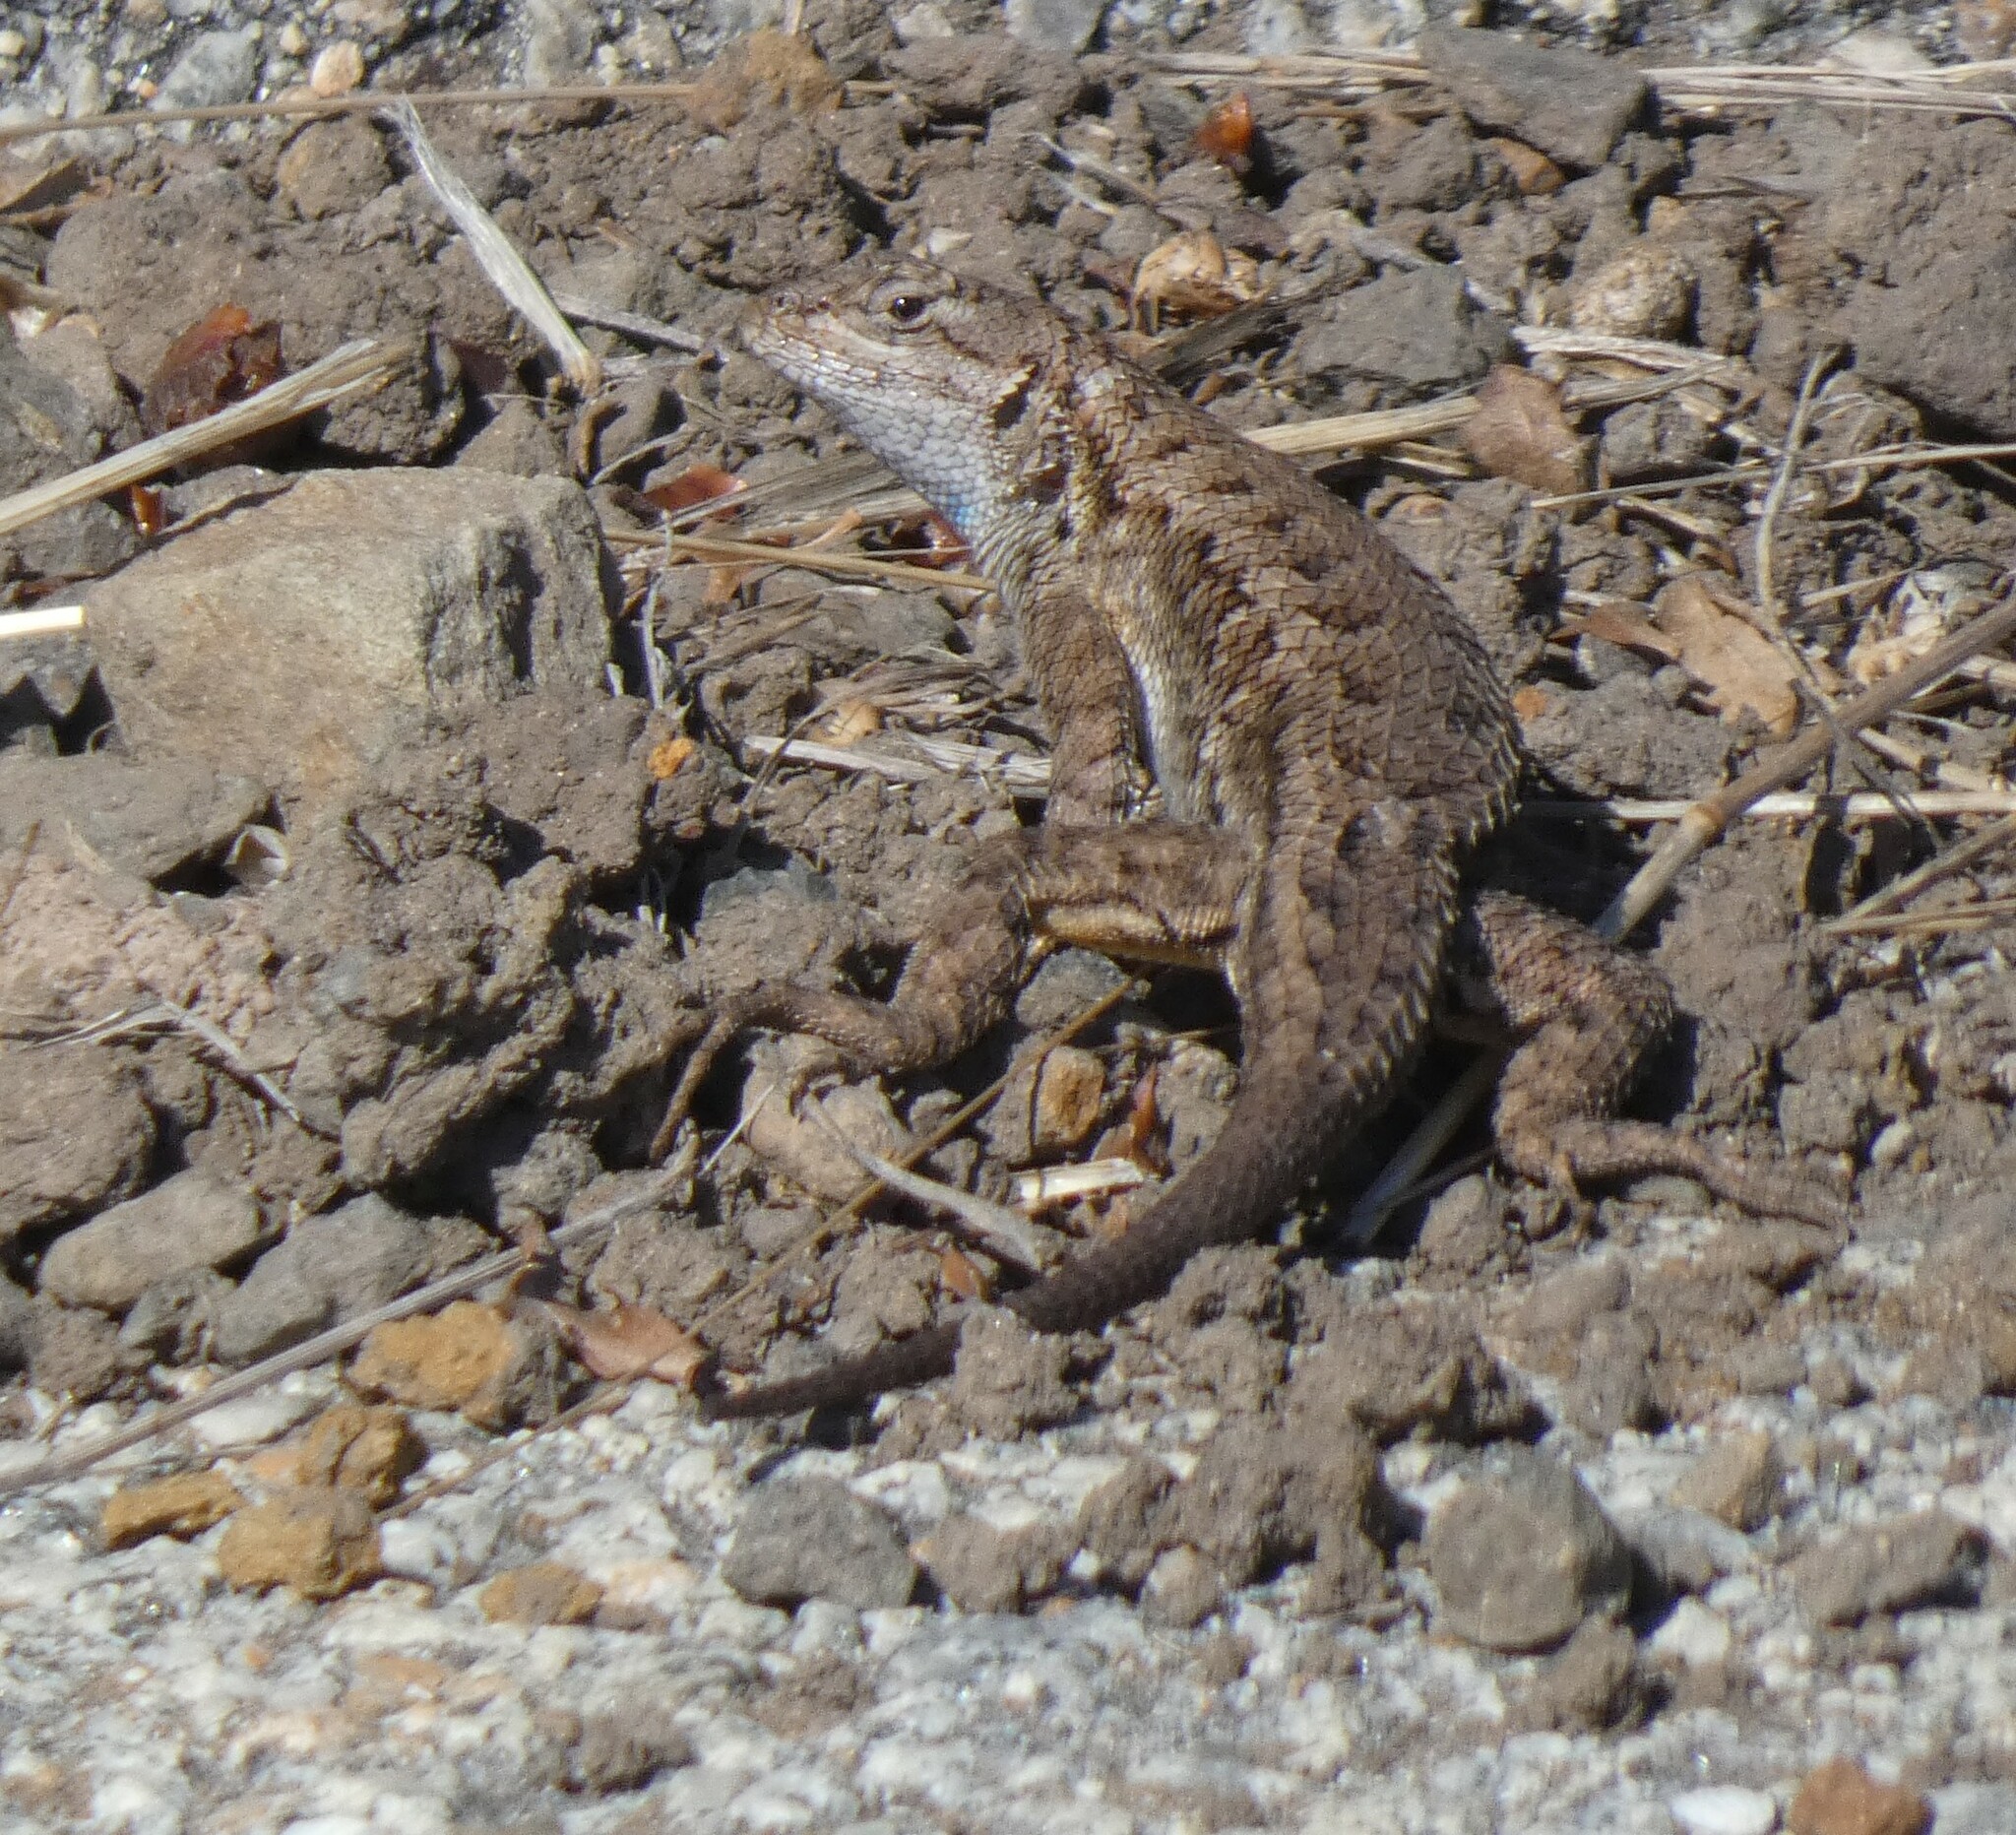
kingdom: Animalia
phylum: Chordata
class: Squamata
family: Phrynosomatidae
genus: Sceloporus
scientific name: Sceloporus occidentalis
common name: Western fence lizard
